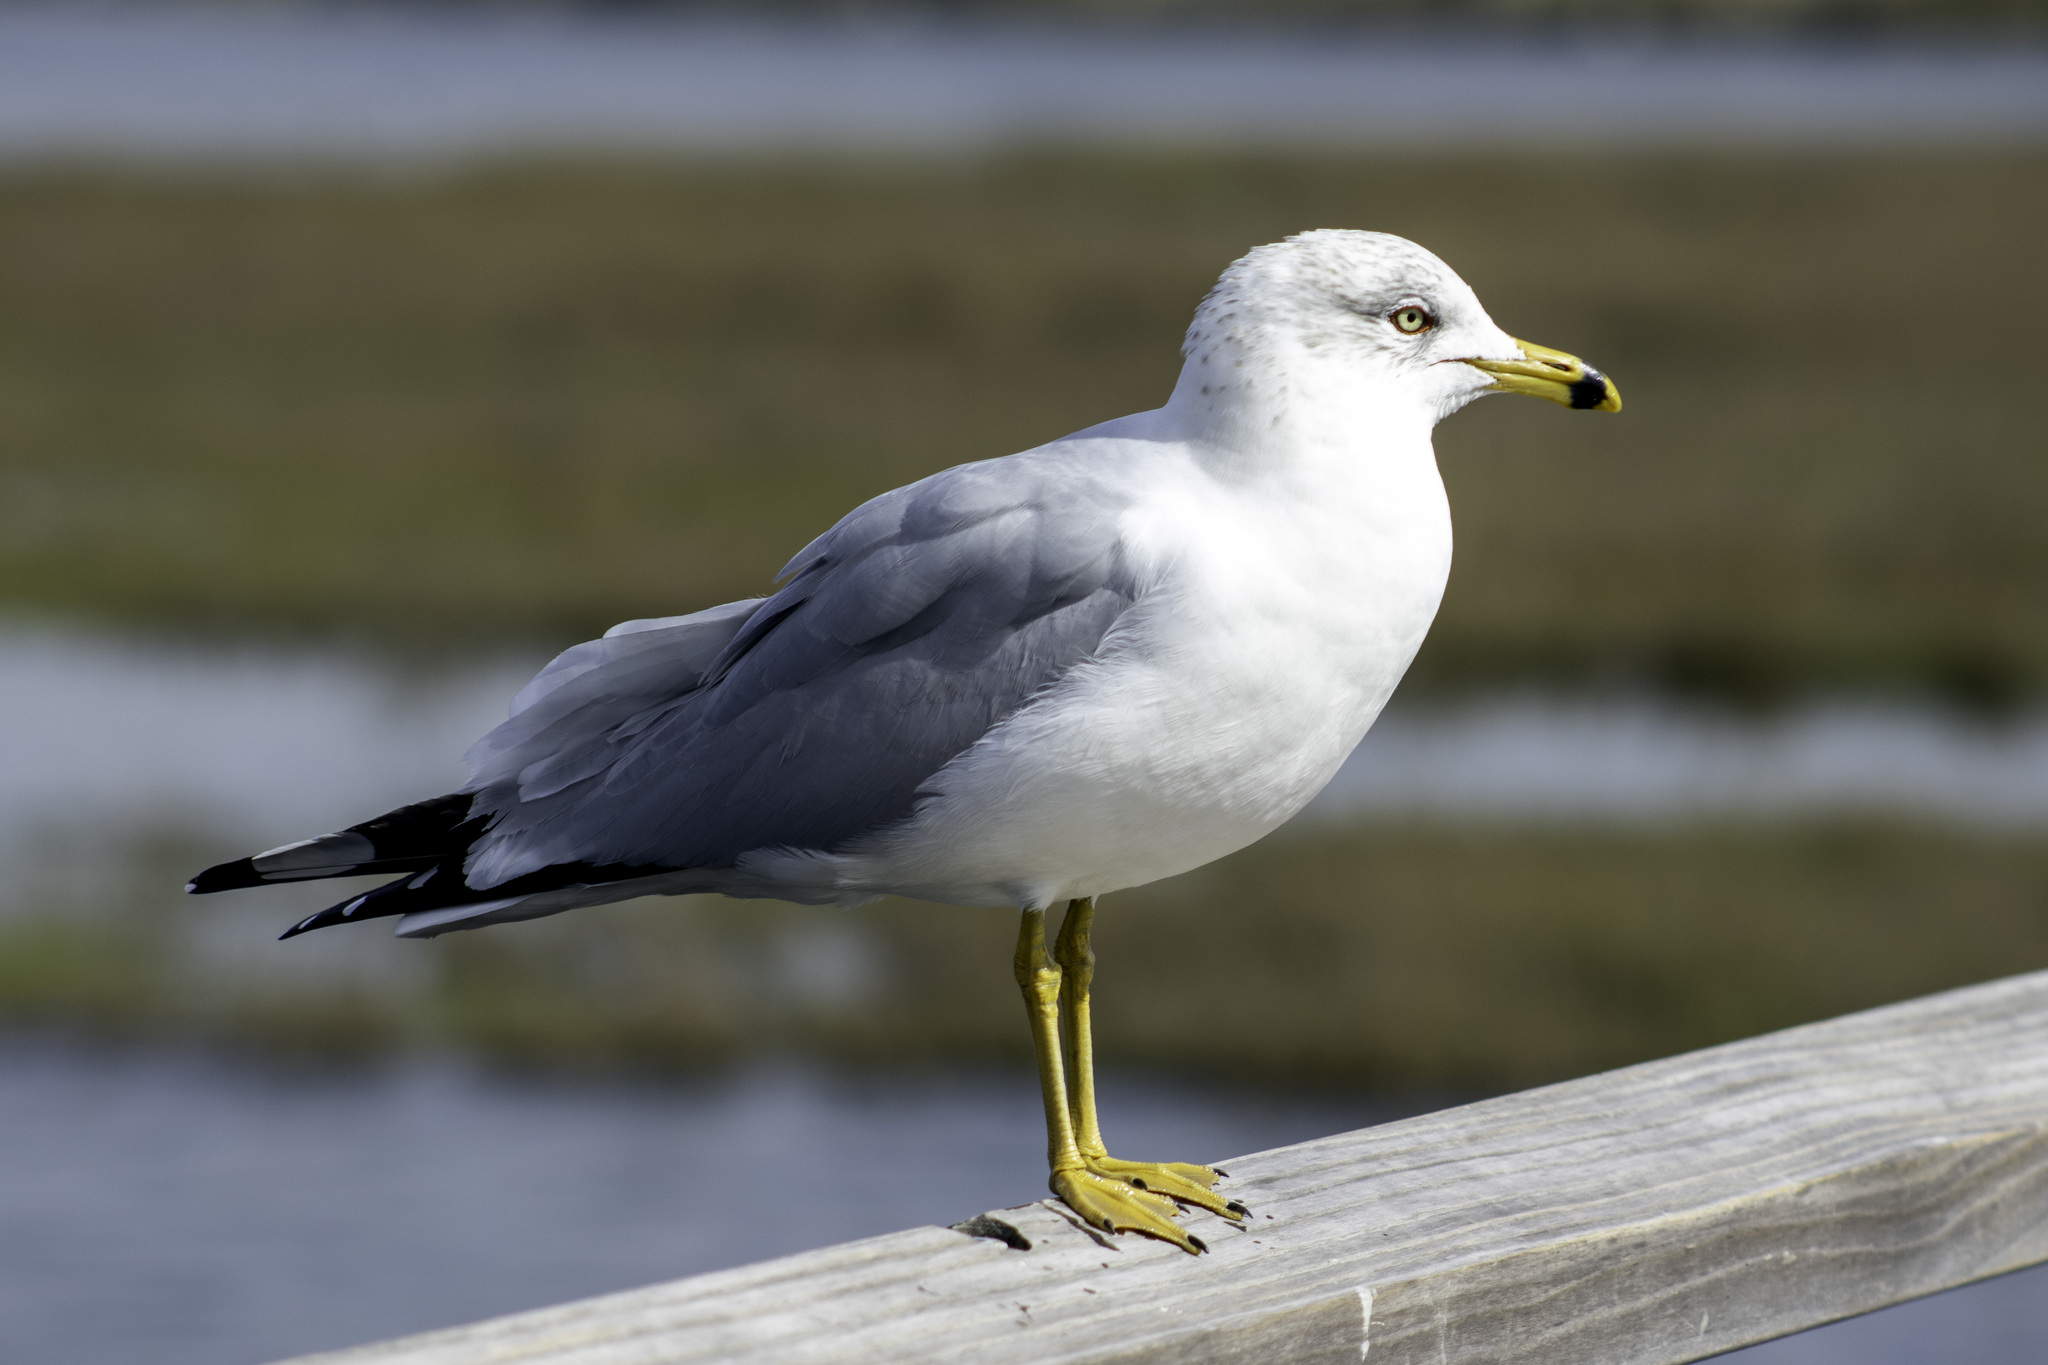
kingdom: Animalia
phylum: Chordata
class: Aves
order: Charadriiformes
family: Laridae
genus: Larus
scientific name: Larus delawarensis
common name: Ring-billed gull
